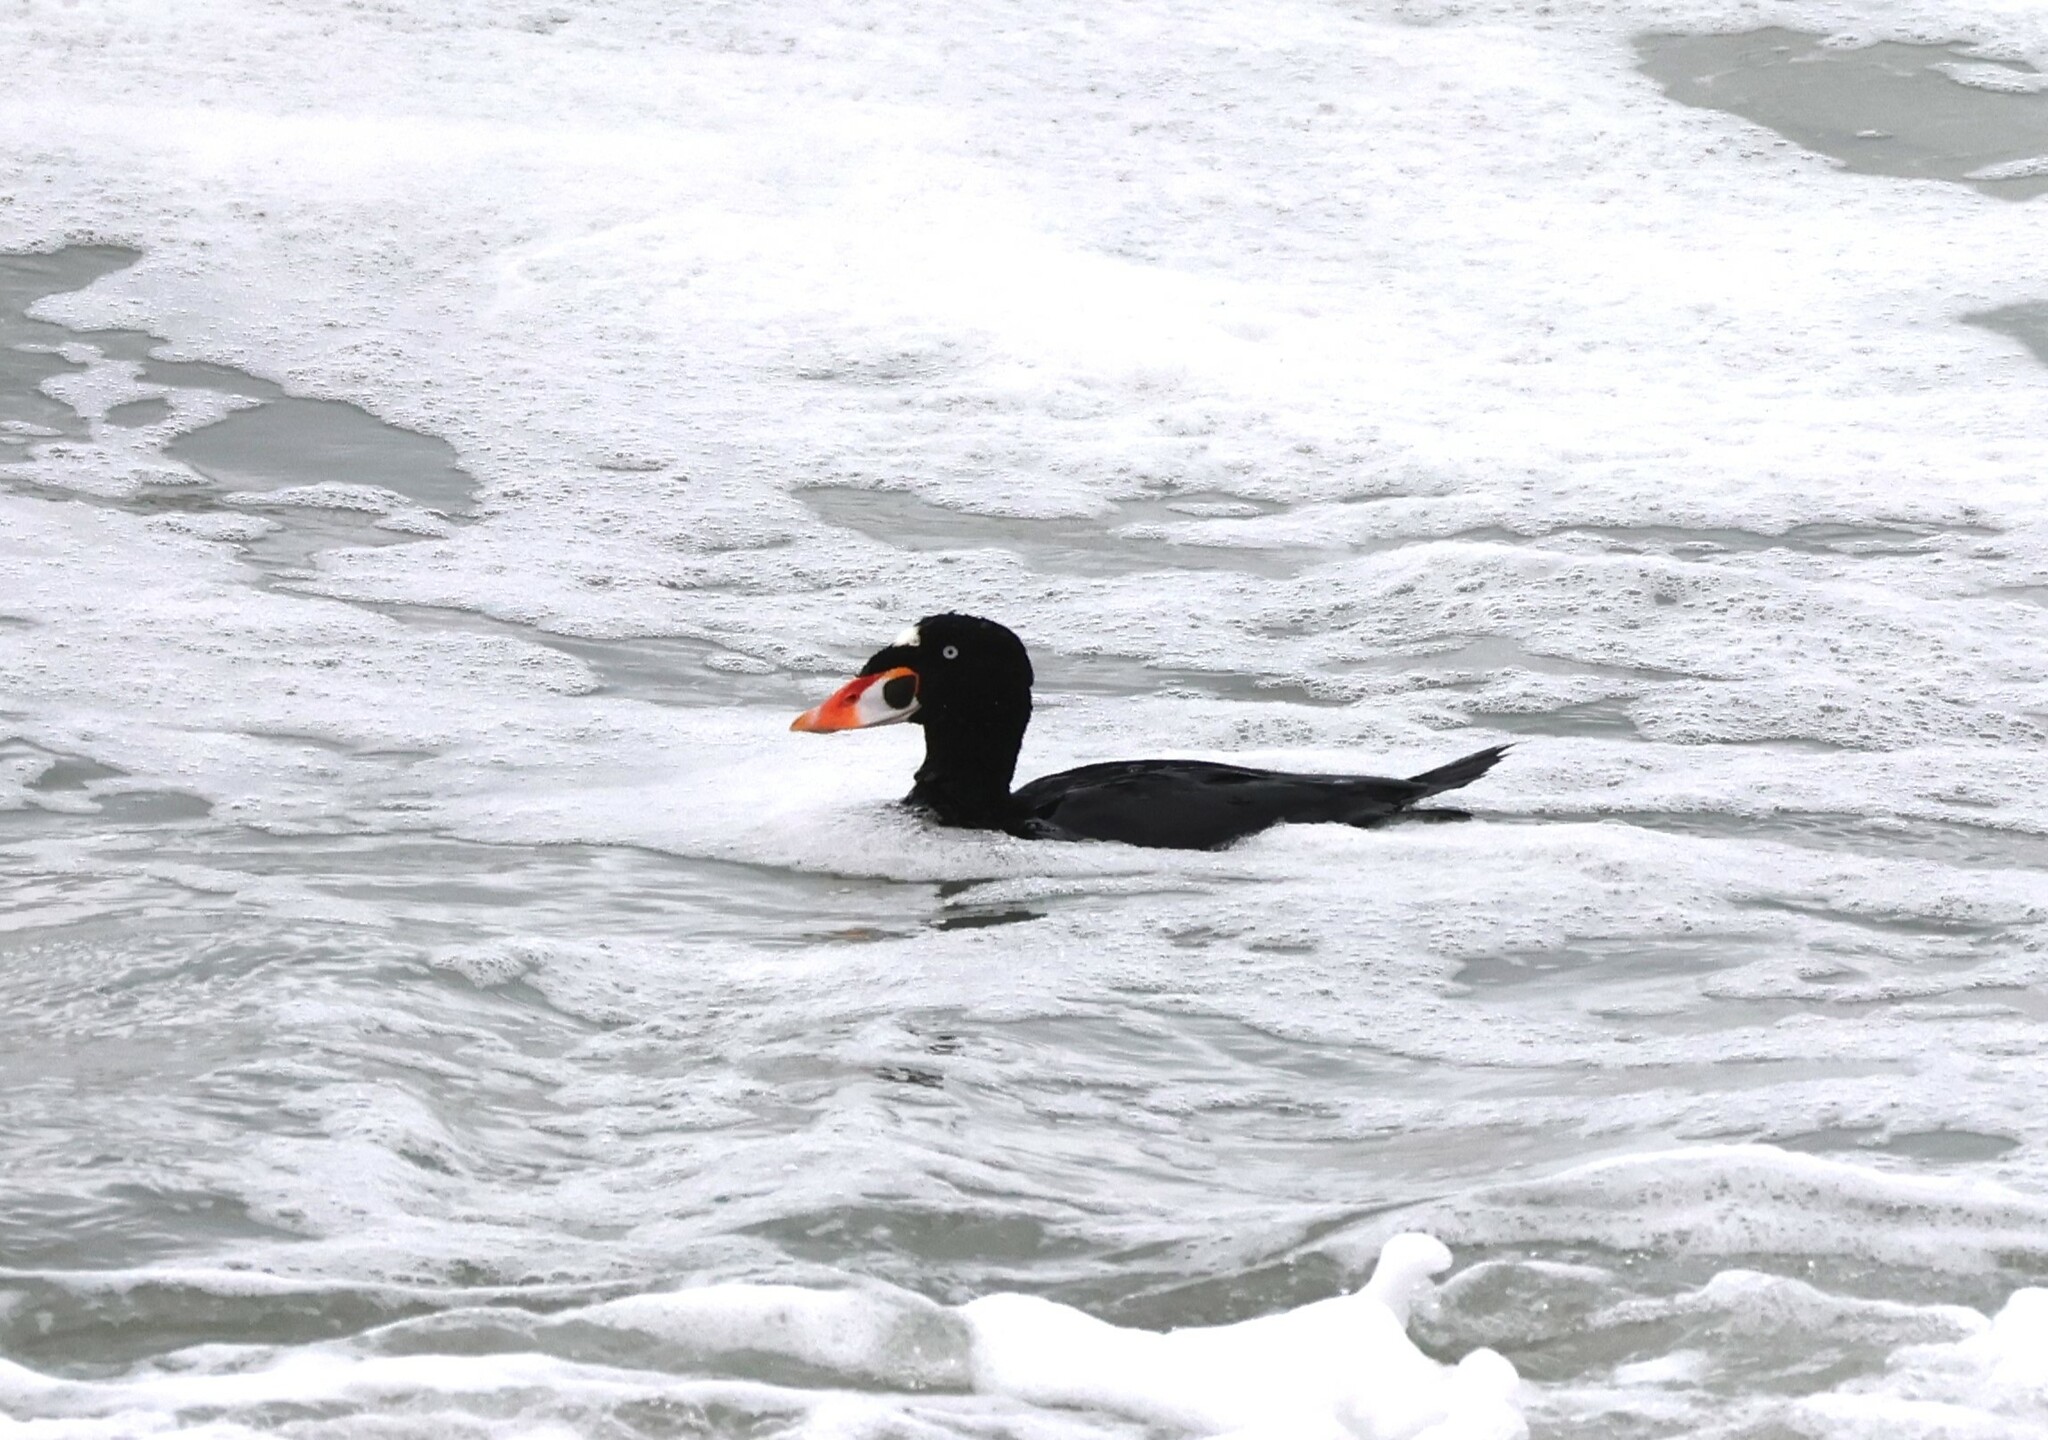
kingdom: Animalia
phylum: Chordata
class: Aves
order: Anseriformes
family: Anatidae
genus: Melanitta
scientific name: Melanitta perspicillata
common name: Surf scoter
